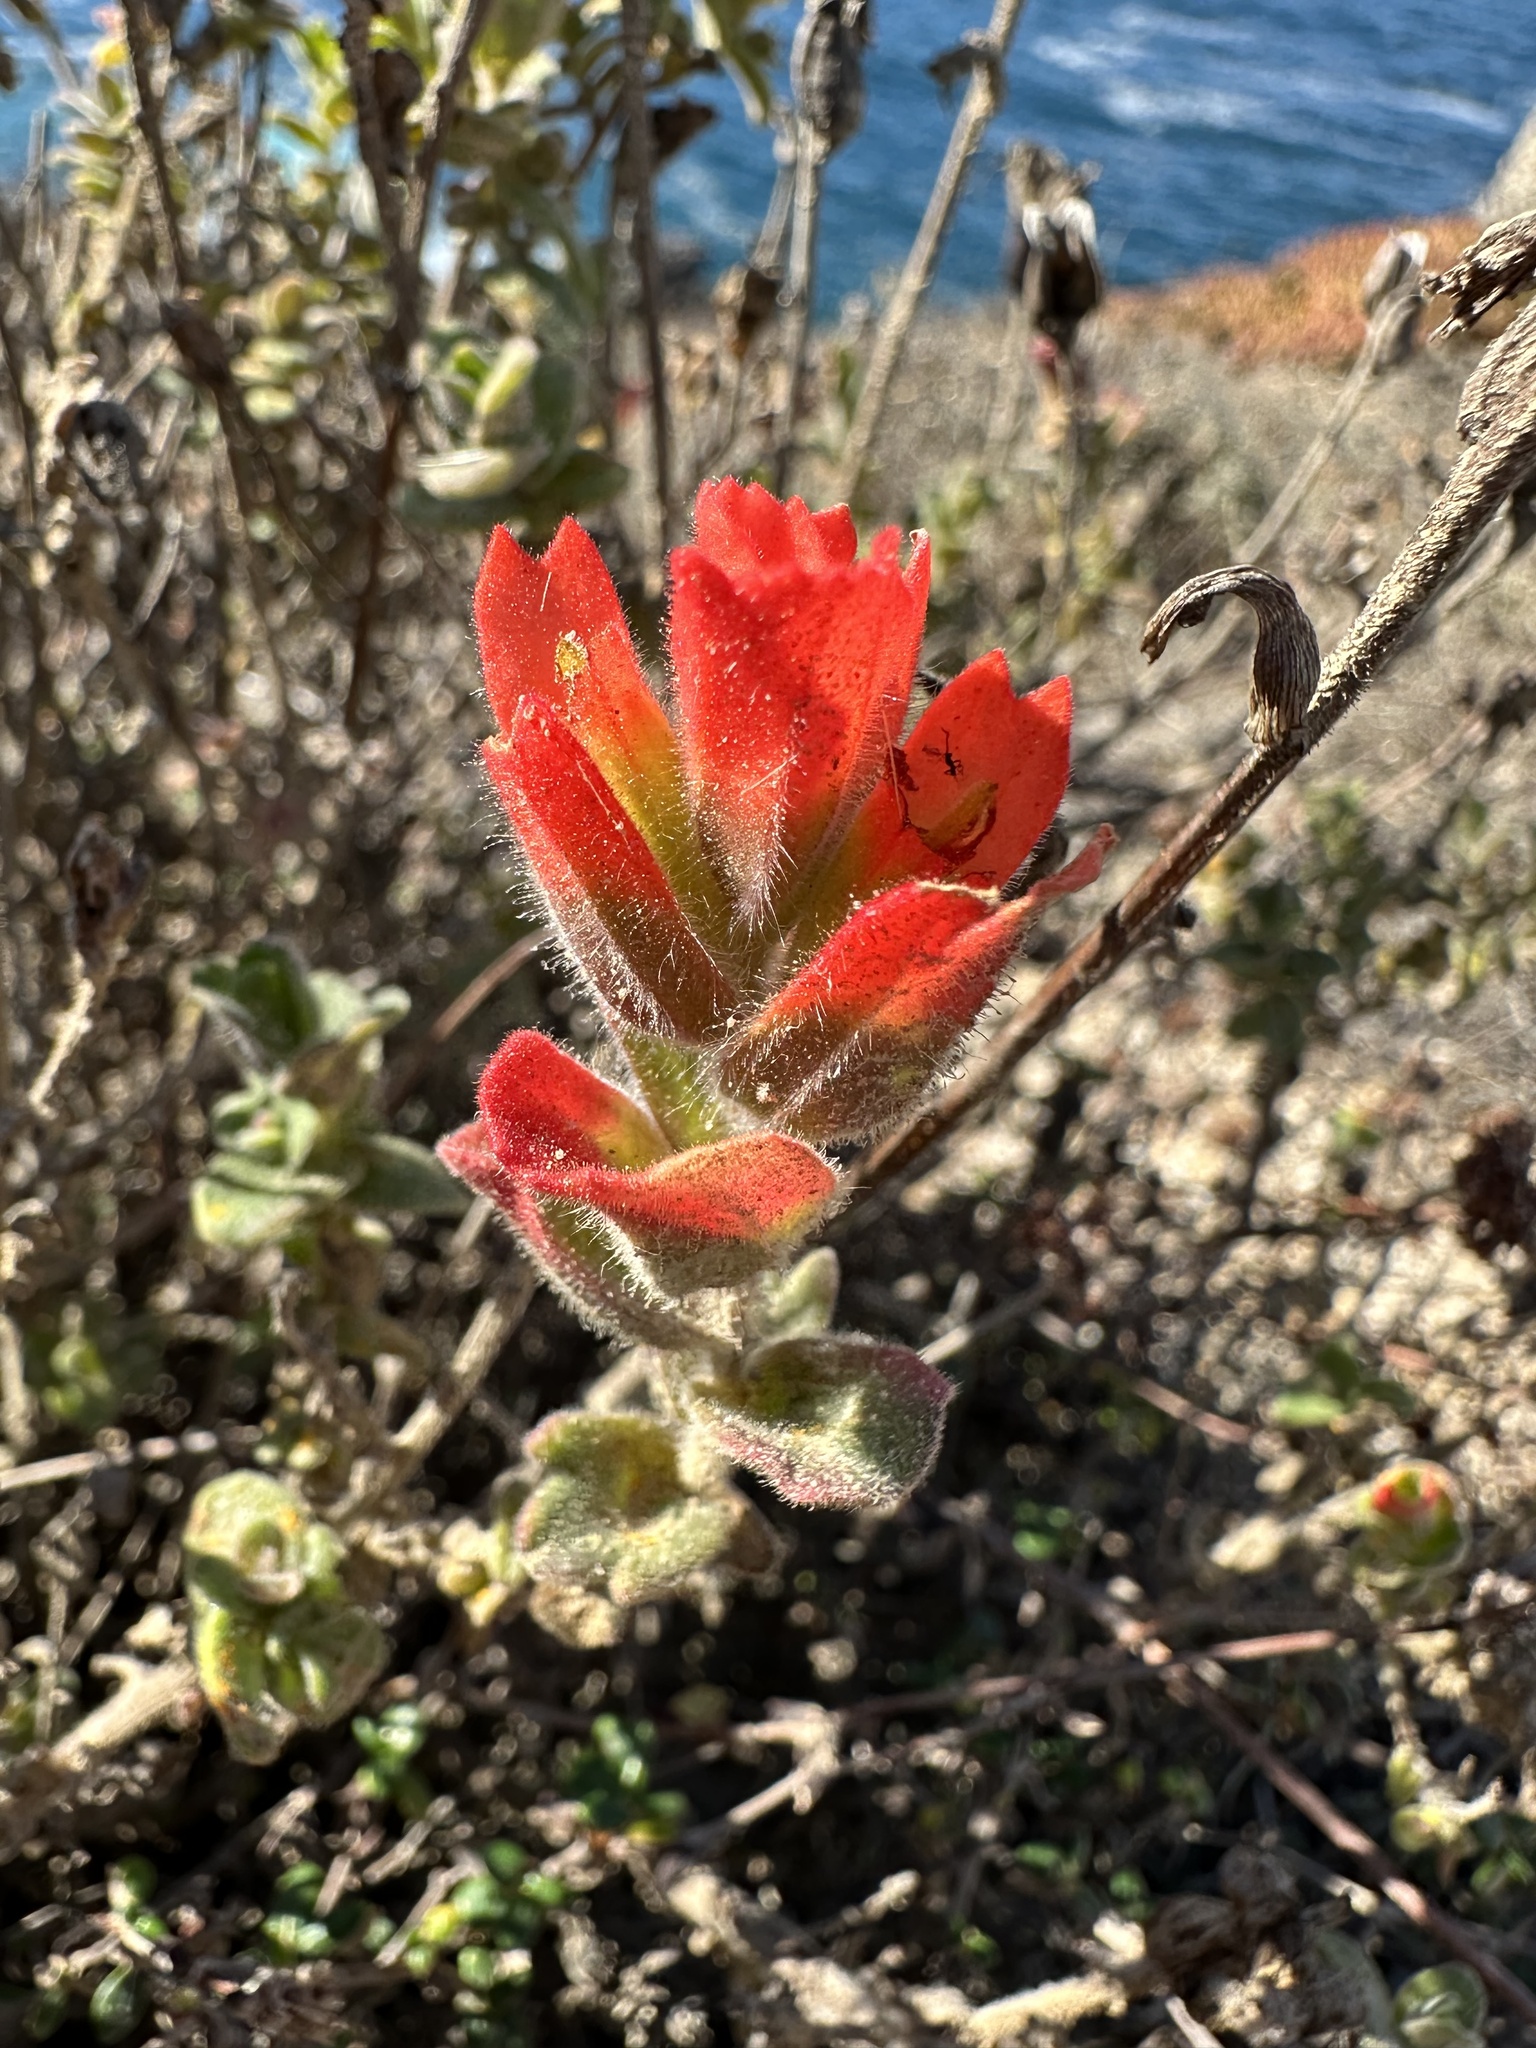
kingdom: Plantae
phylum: Tracheophyta
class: Magnoliopsida
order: Lamiales
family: Orobanchaceae
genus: Castilleja
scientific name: Castilleja latifolia
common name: Monterey indian paintbrush
